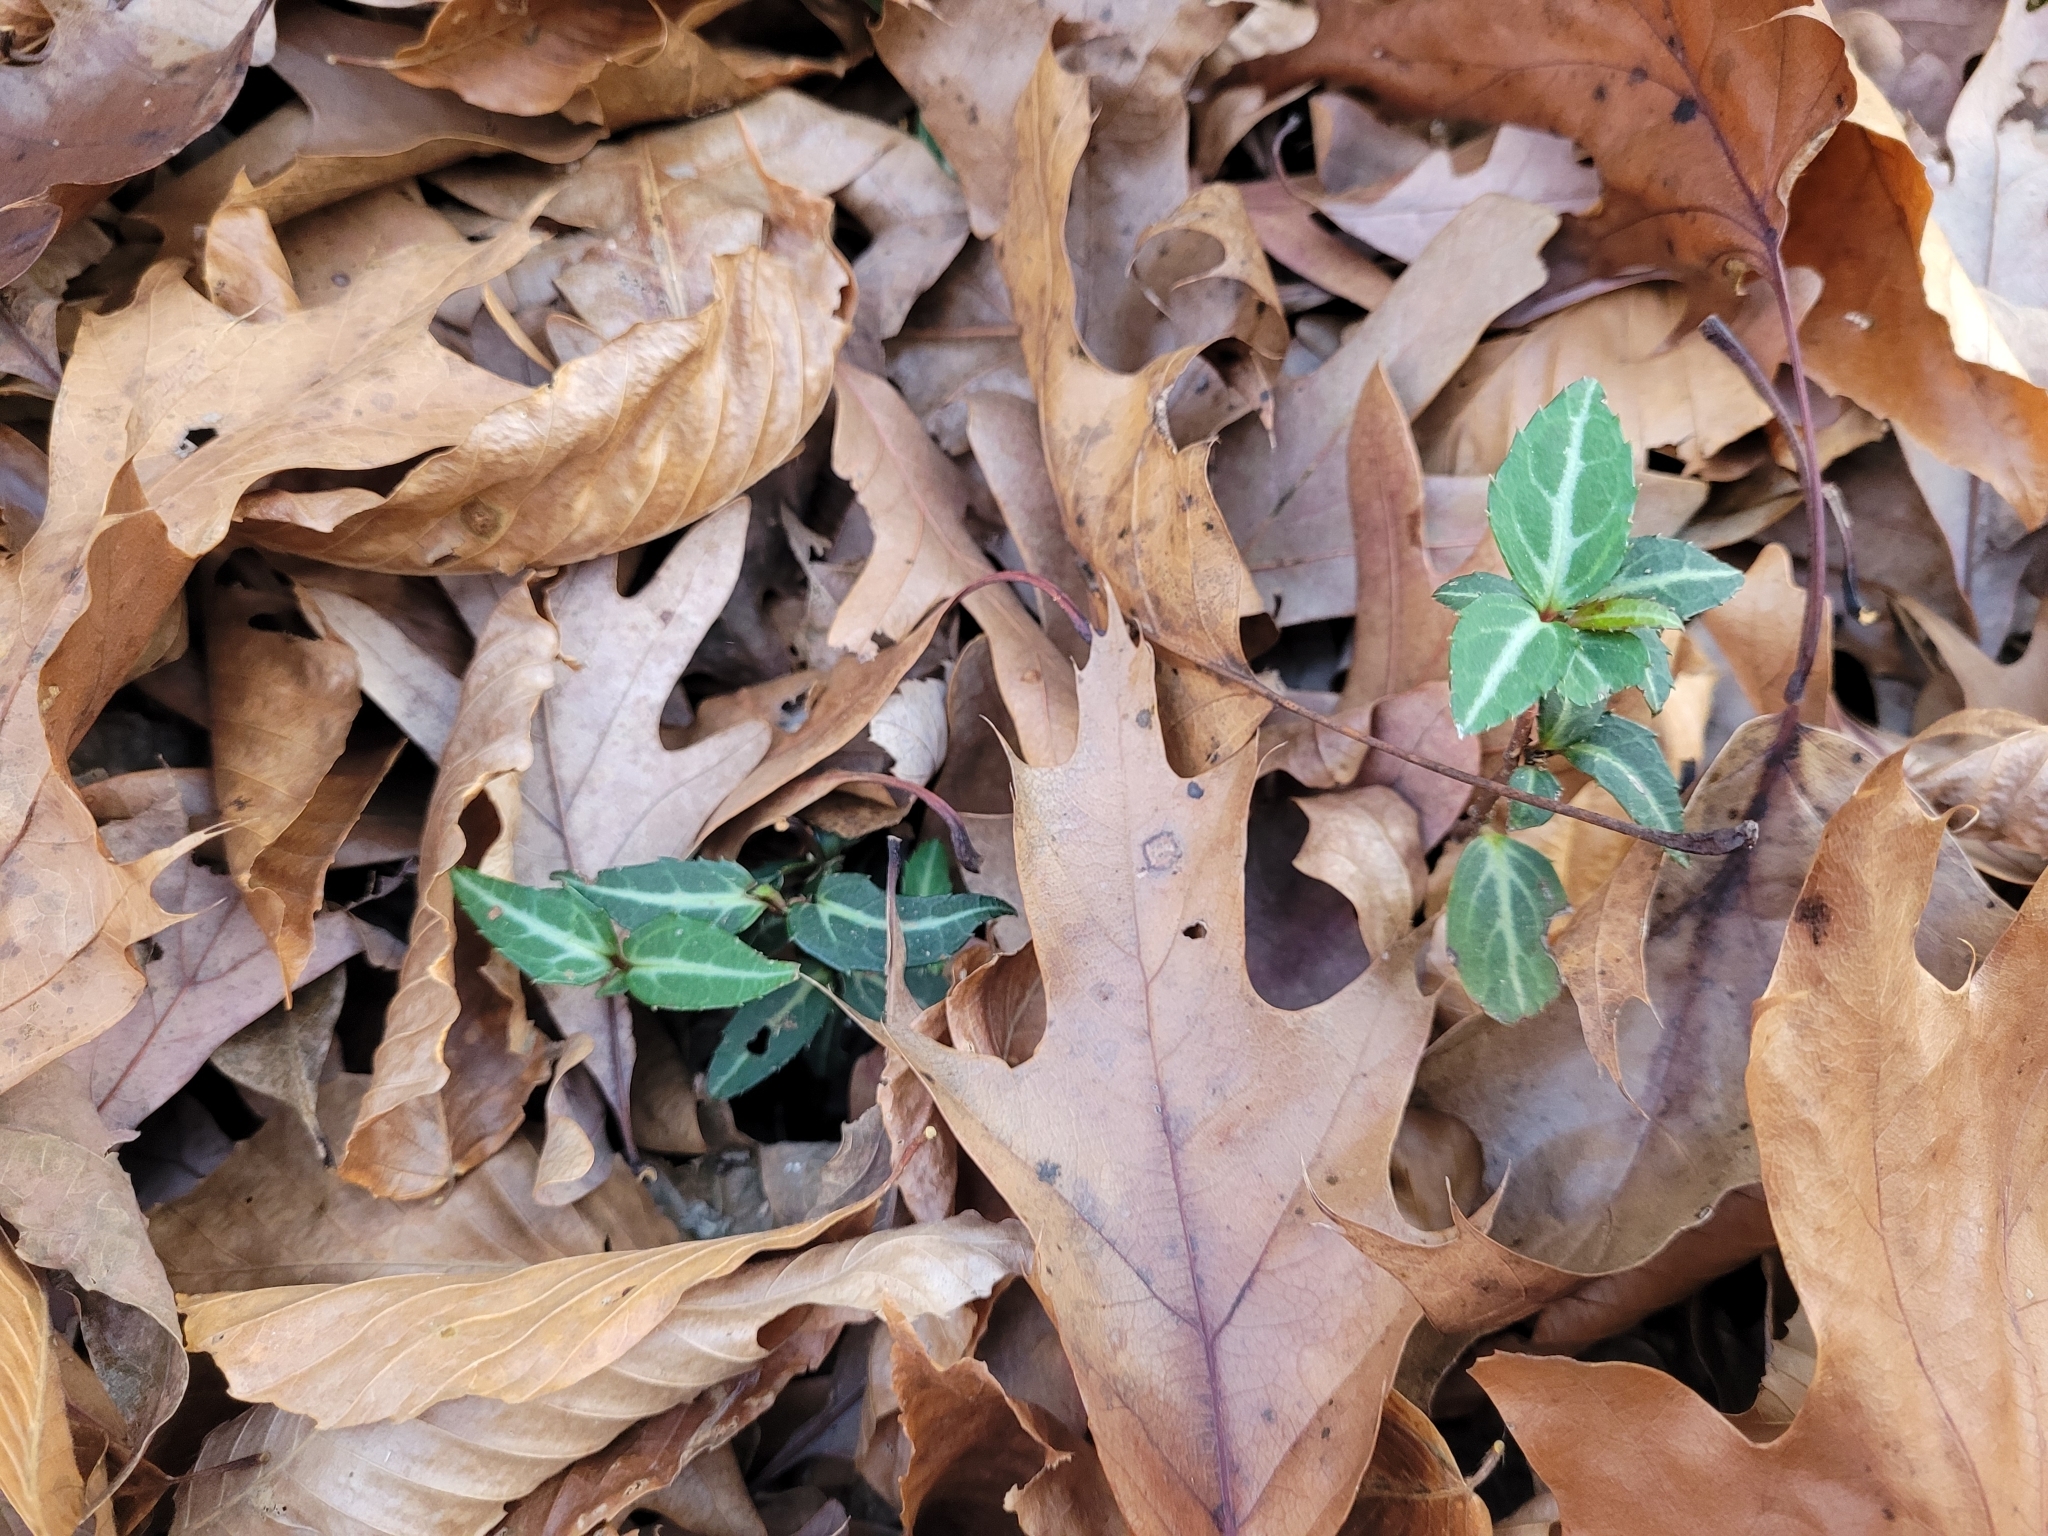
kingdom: Plantae
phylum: Tracheophyta
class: Magnoliopsida
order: Ericales
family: Ericaceae
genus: Chimaphila
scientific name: Chimaphila maculata
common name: Spotted pipsissewa
